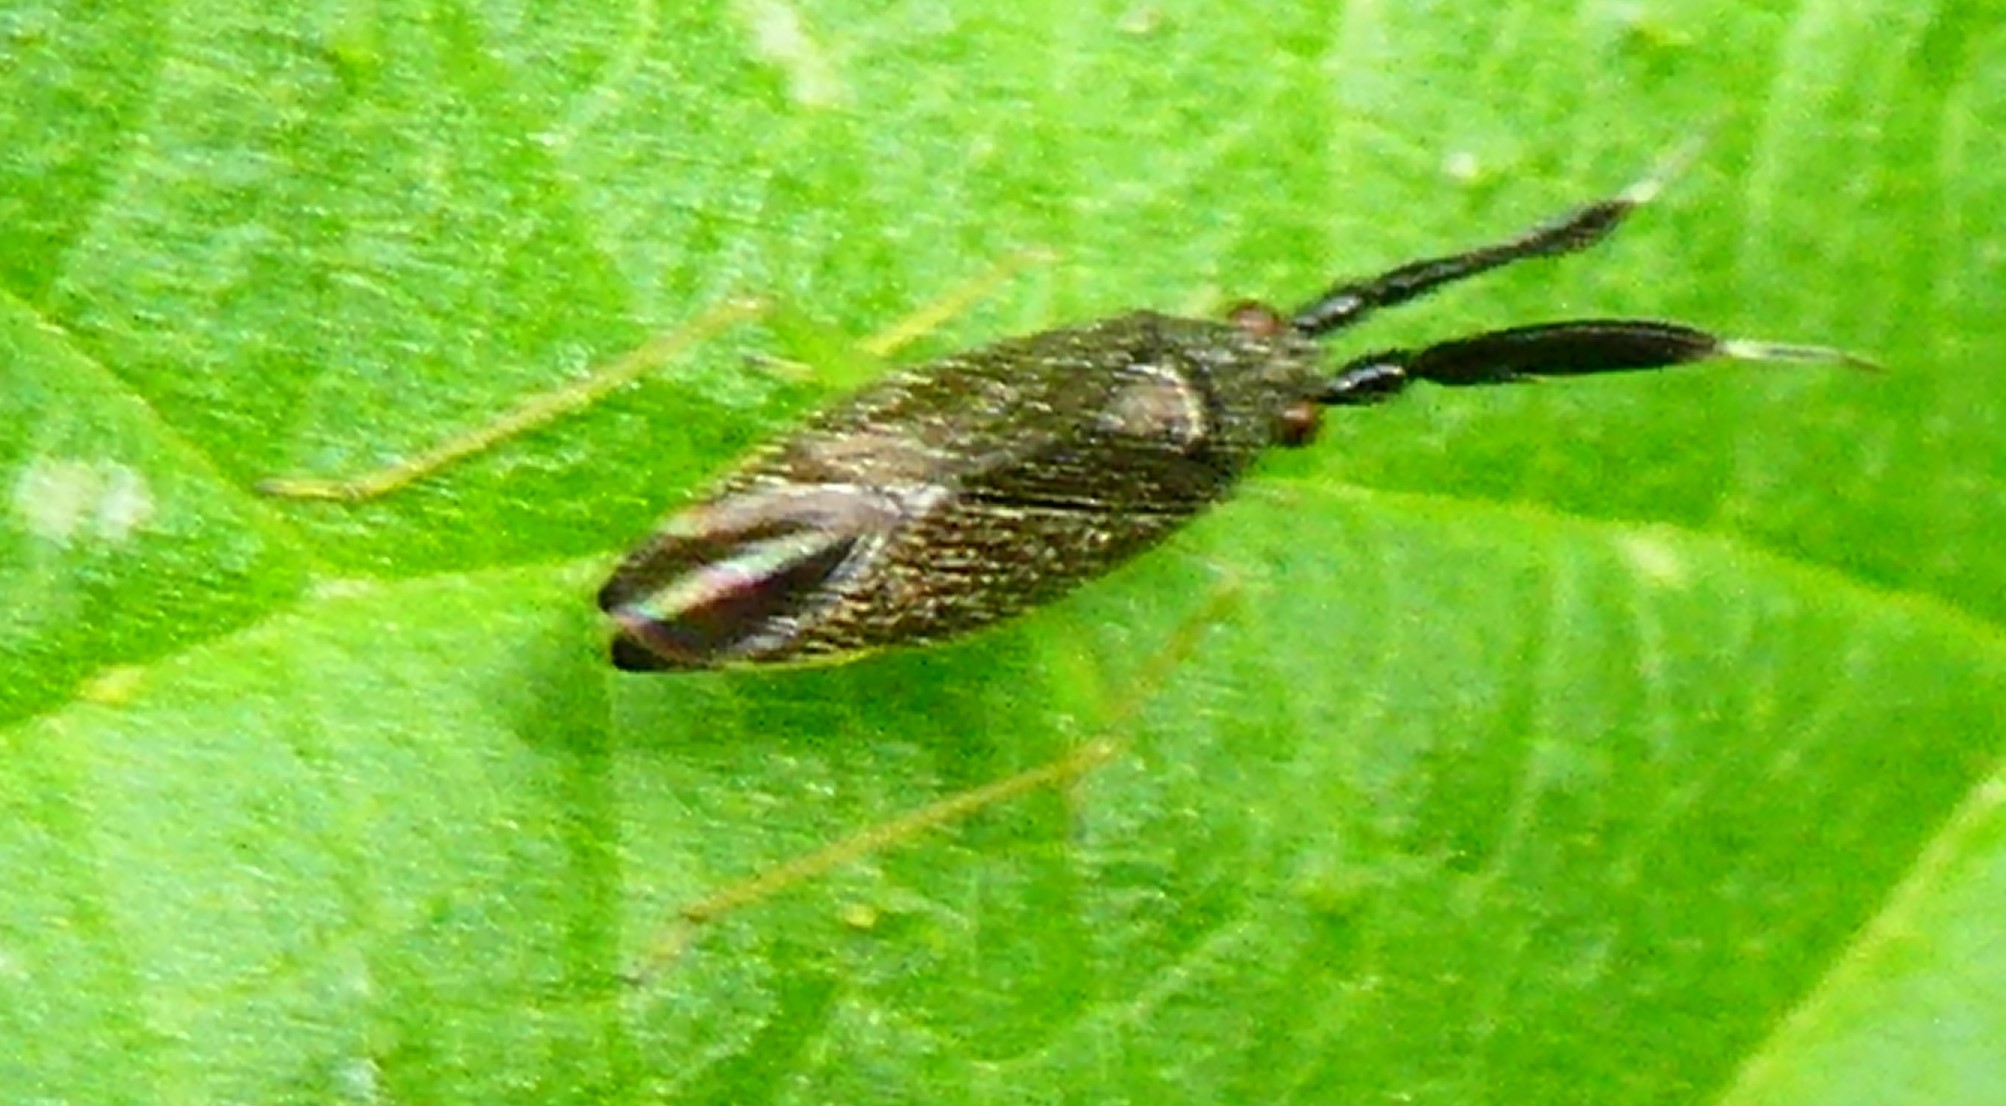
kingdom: Animalia
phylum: Arthropoda
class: Insecta
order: Hemiptera
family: Miridae
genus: Heterotoma
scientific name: Heterotoma planicornis
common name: Plant bug
